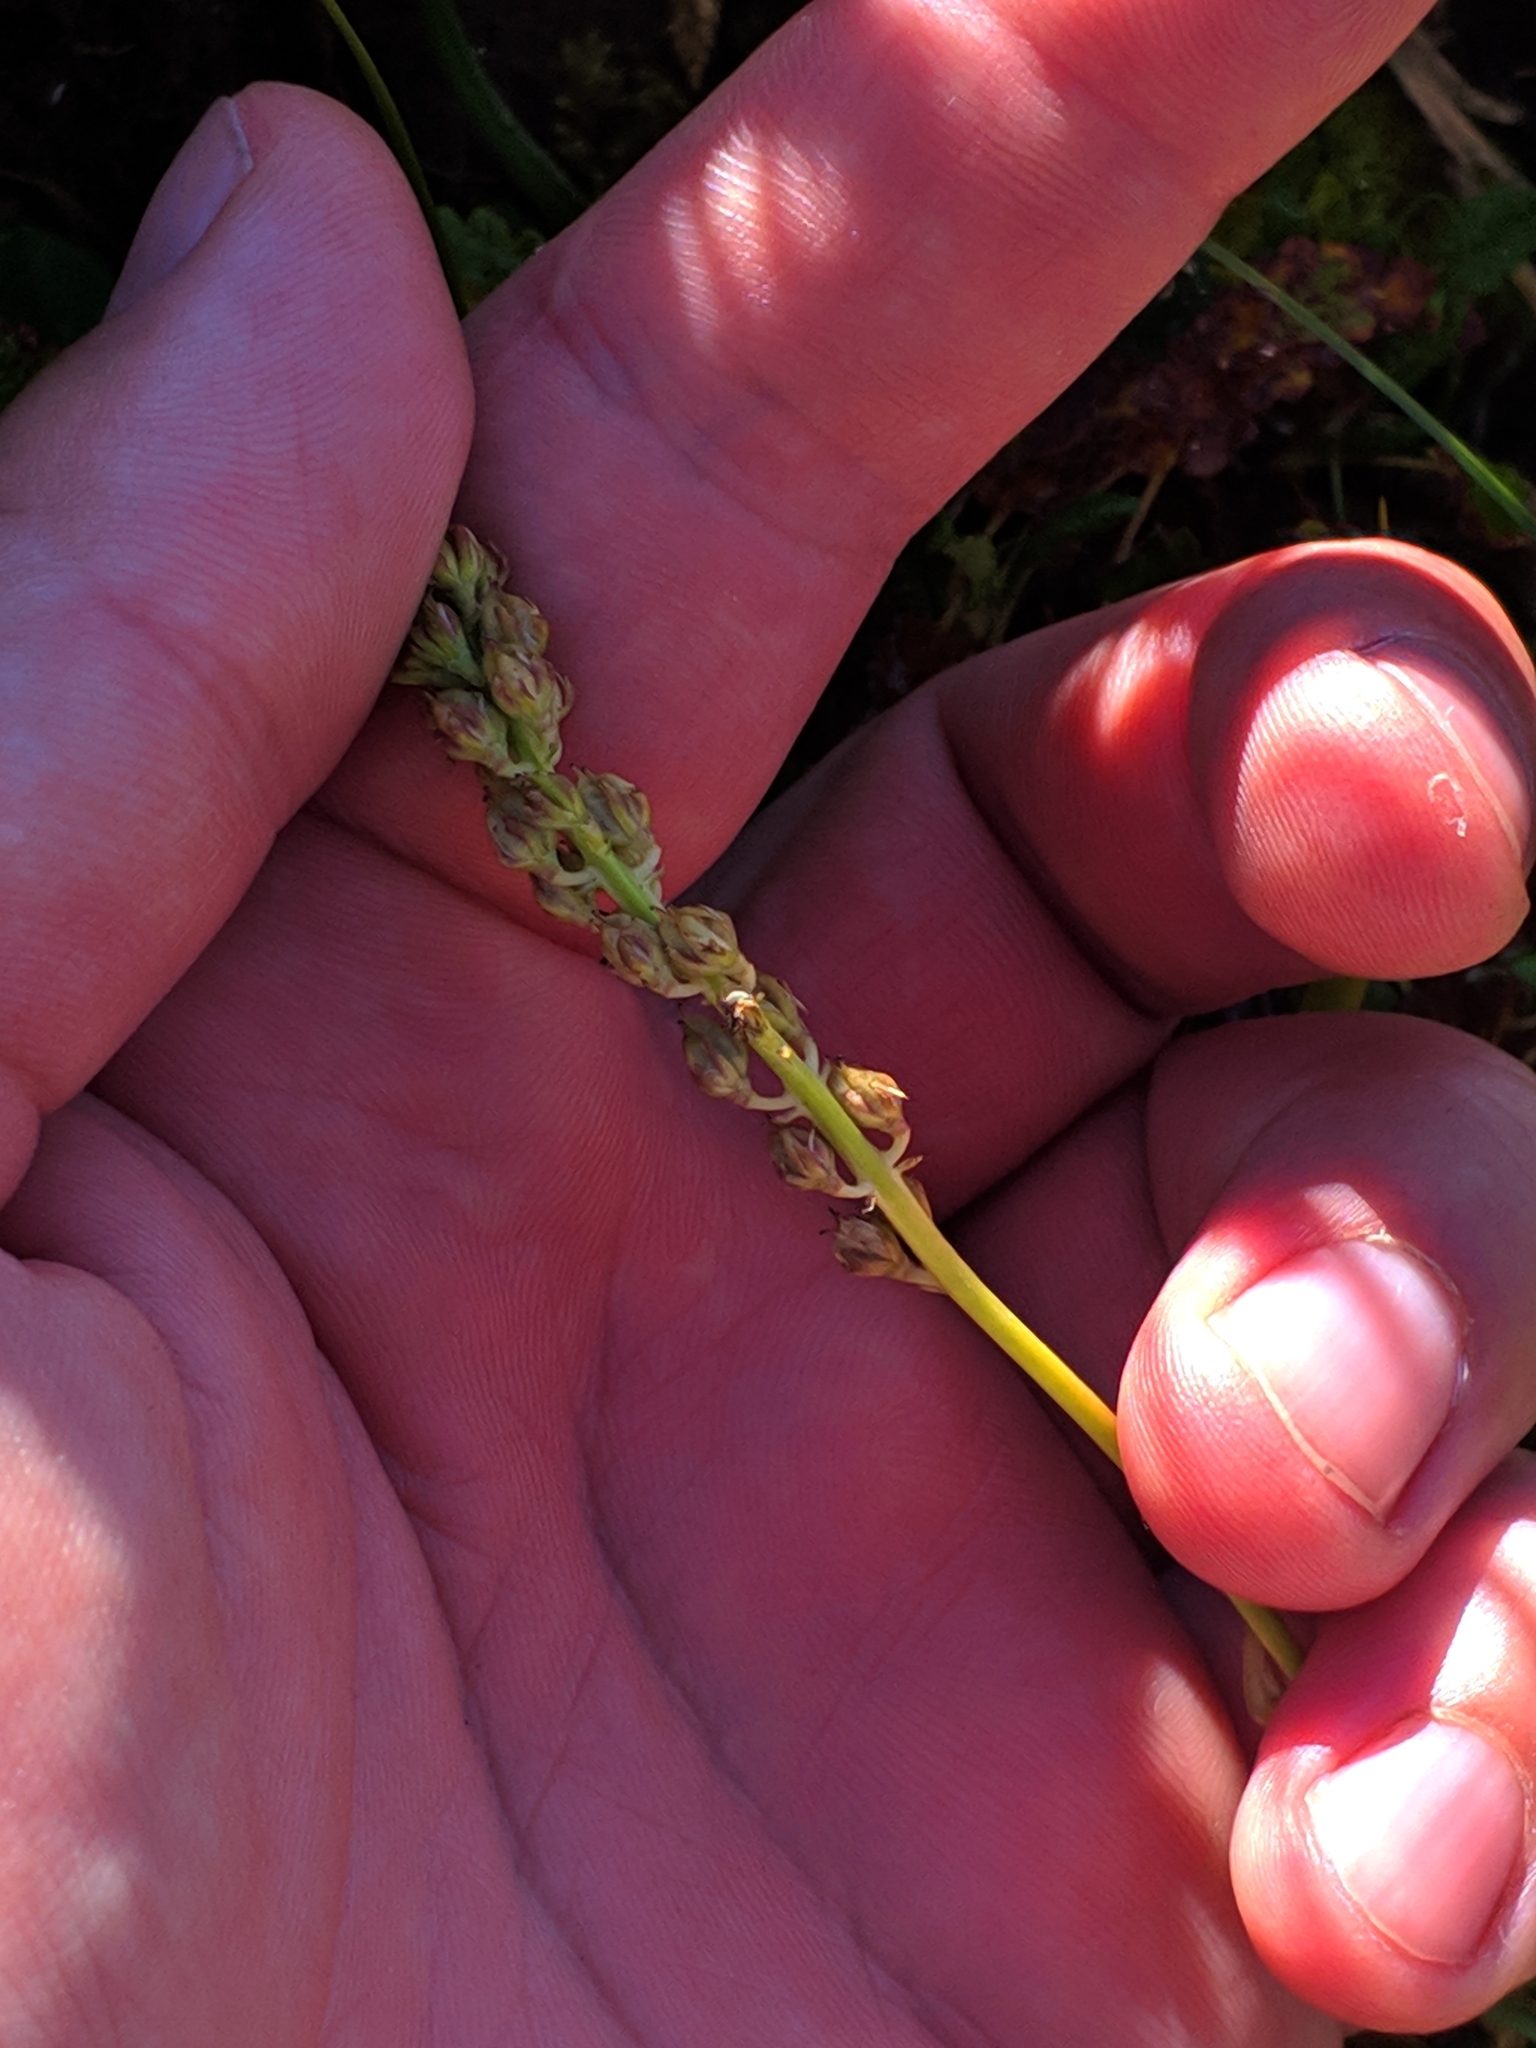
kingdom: Plantae
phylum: Tracheophyta
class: Liliopsida
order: Alismatales
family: Tofieldiaceae
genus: Tofieldia
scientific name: Tofieldia calyculata
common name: German-asphodel
